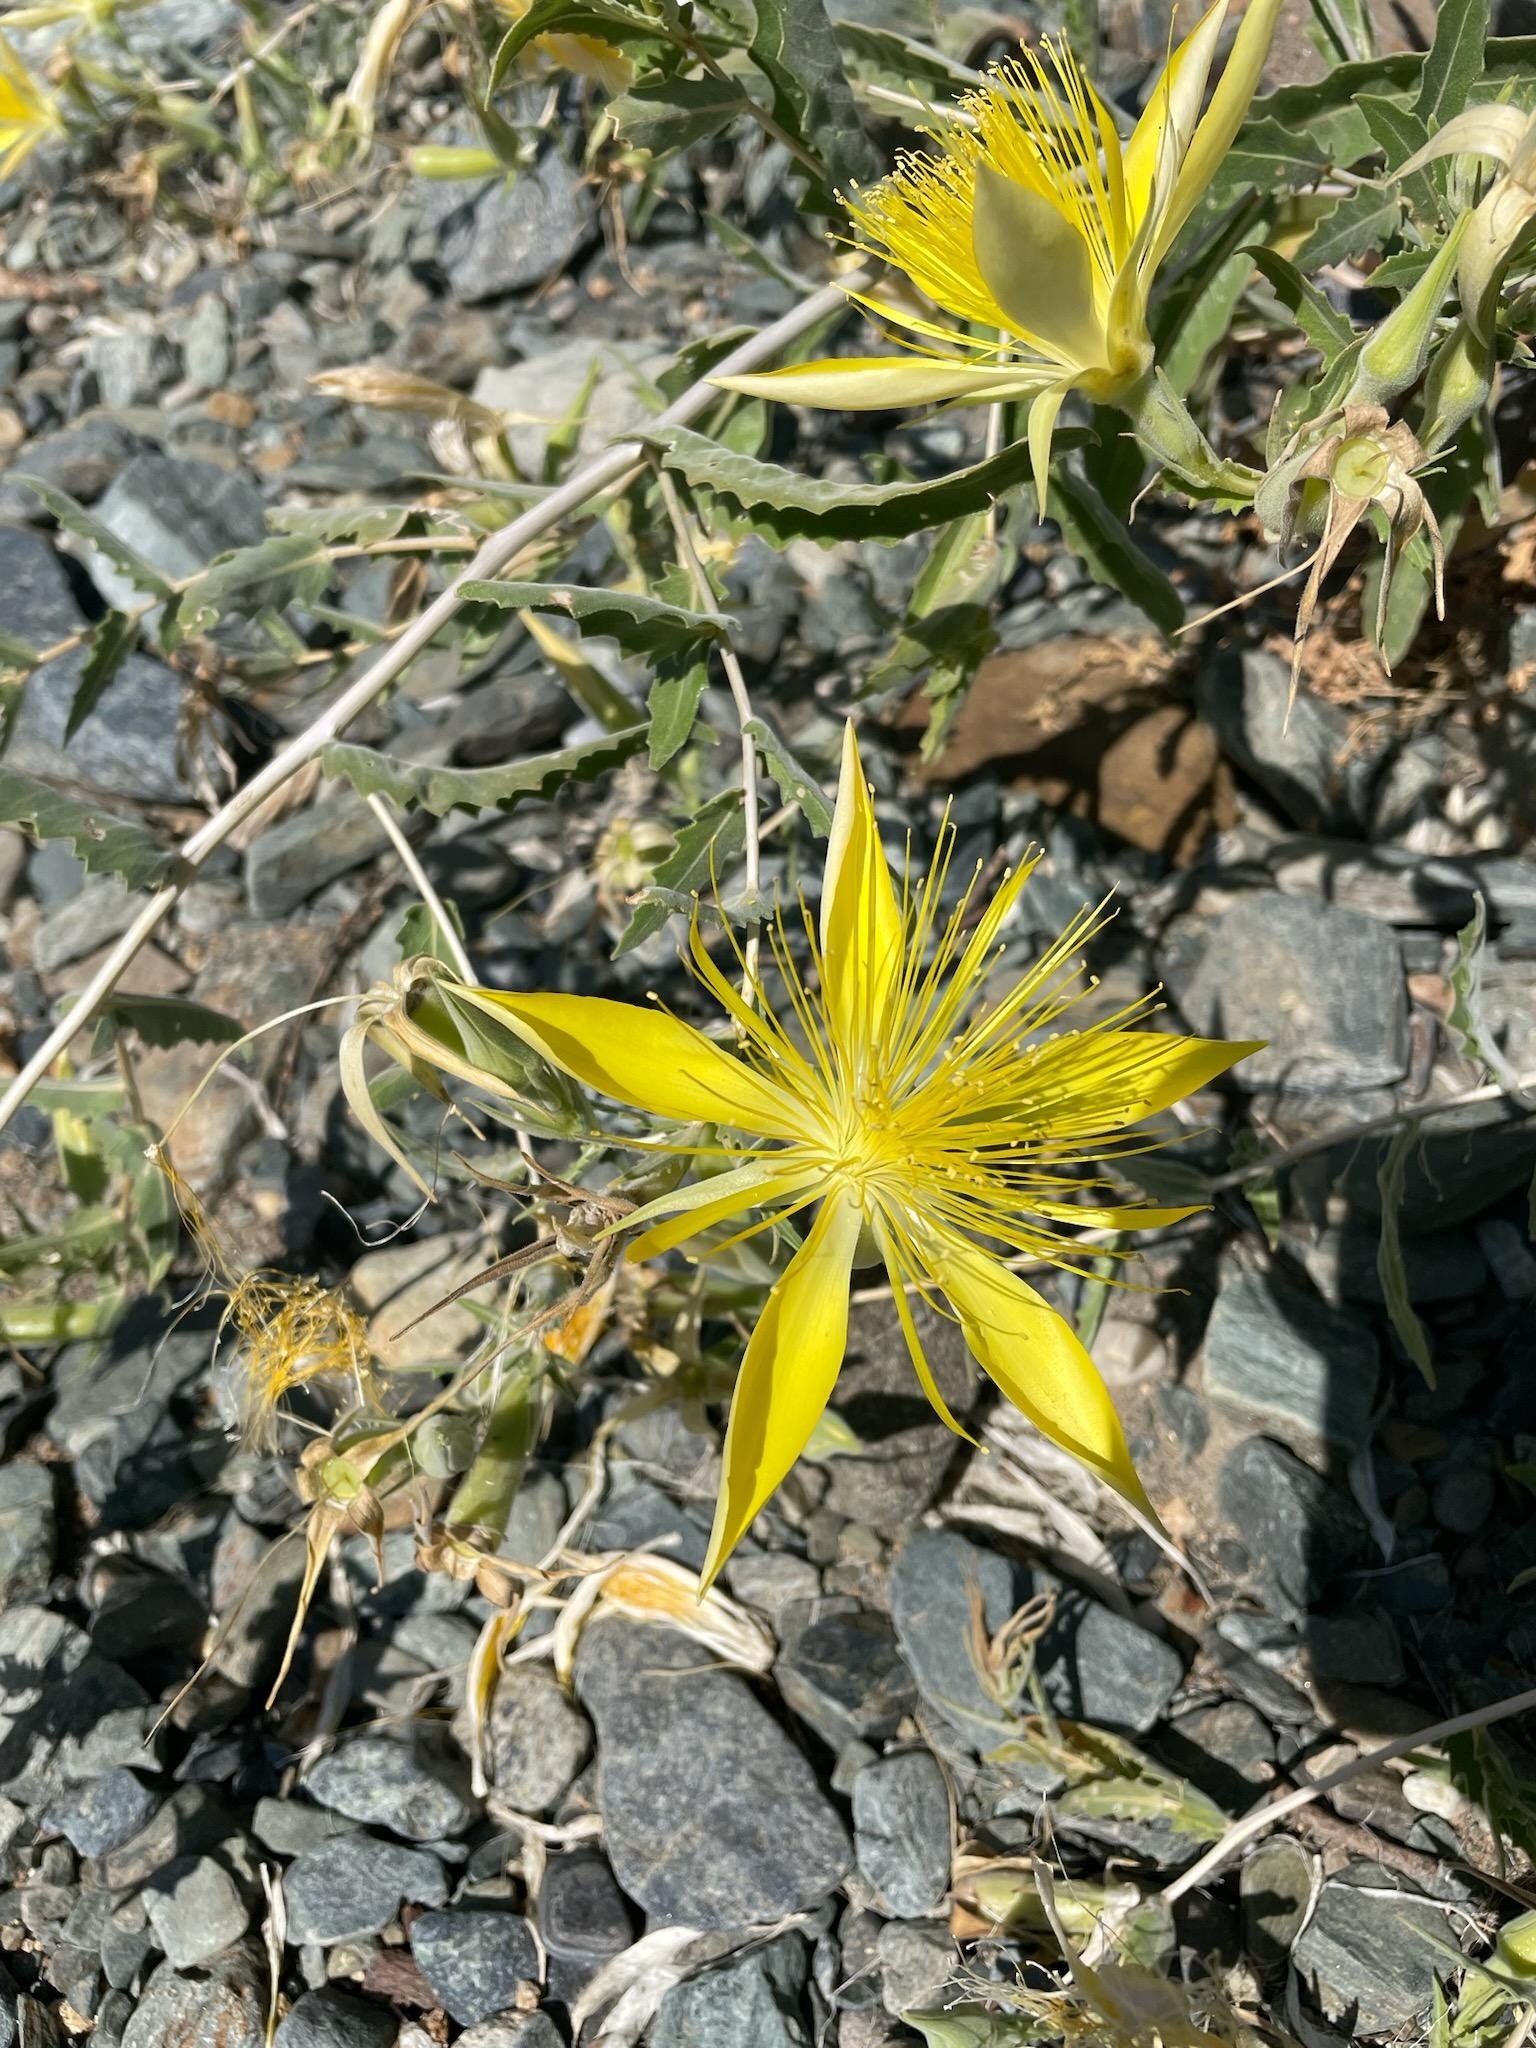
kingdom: Plantae
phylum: Tracheophyta
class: Magnoliopsida
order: Cornales
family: Loasaceae
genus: Mentzelia
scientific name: Mentzelia laevicaulis
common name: Smooth-stem blazingstar
